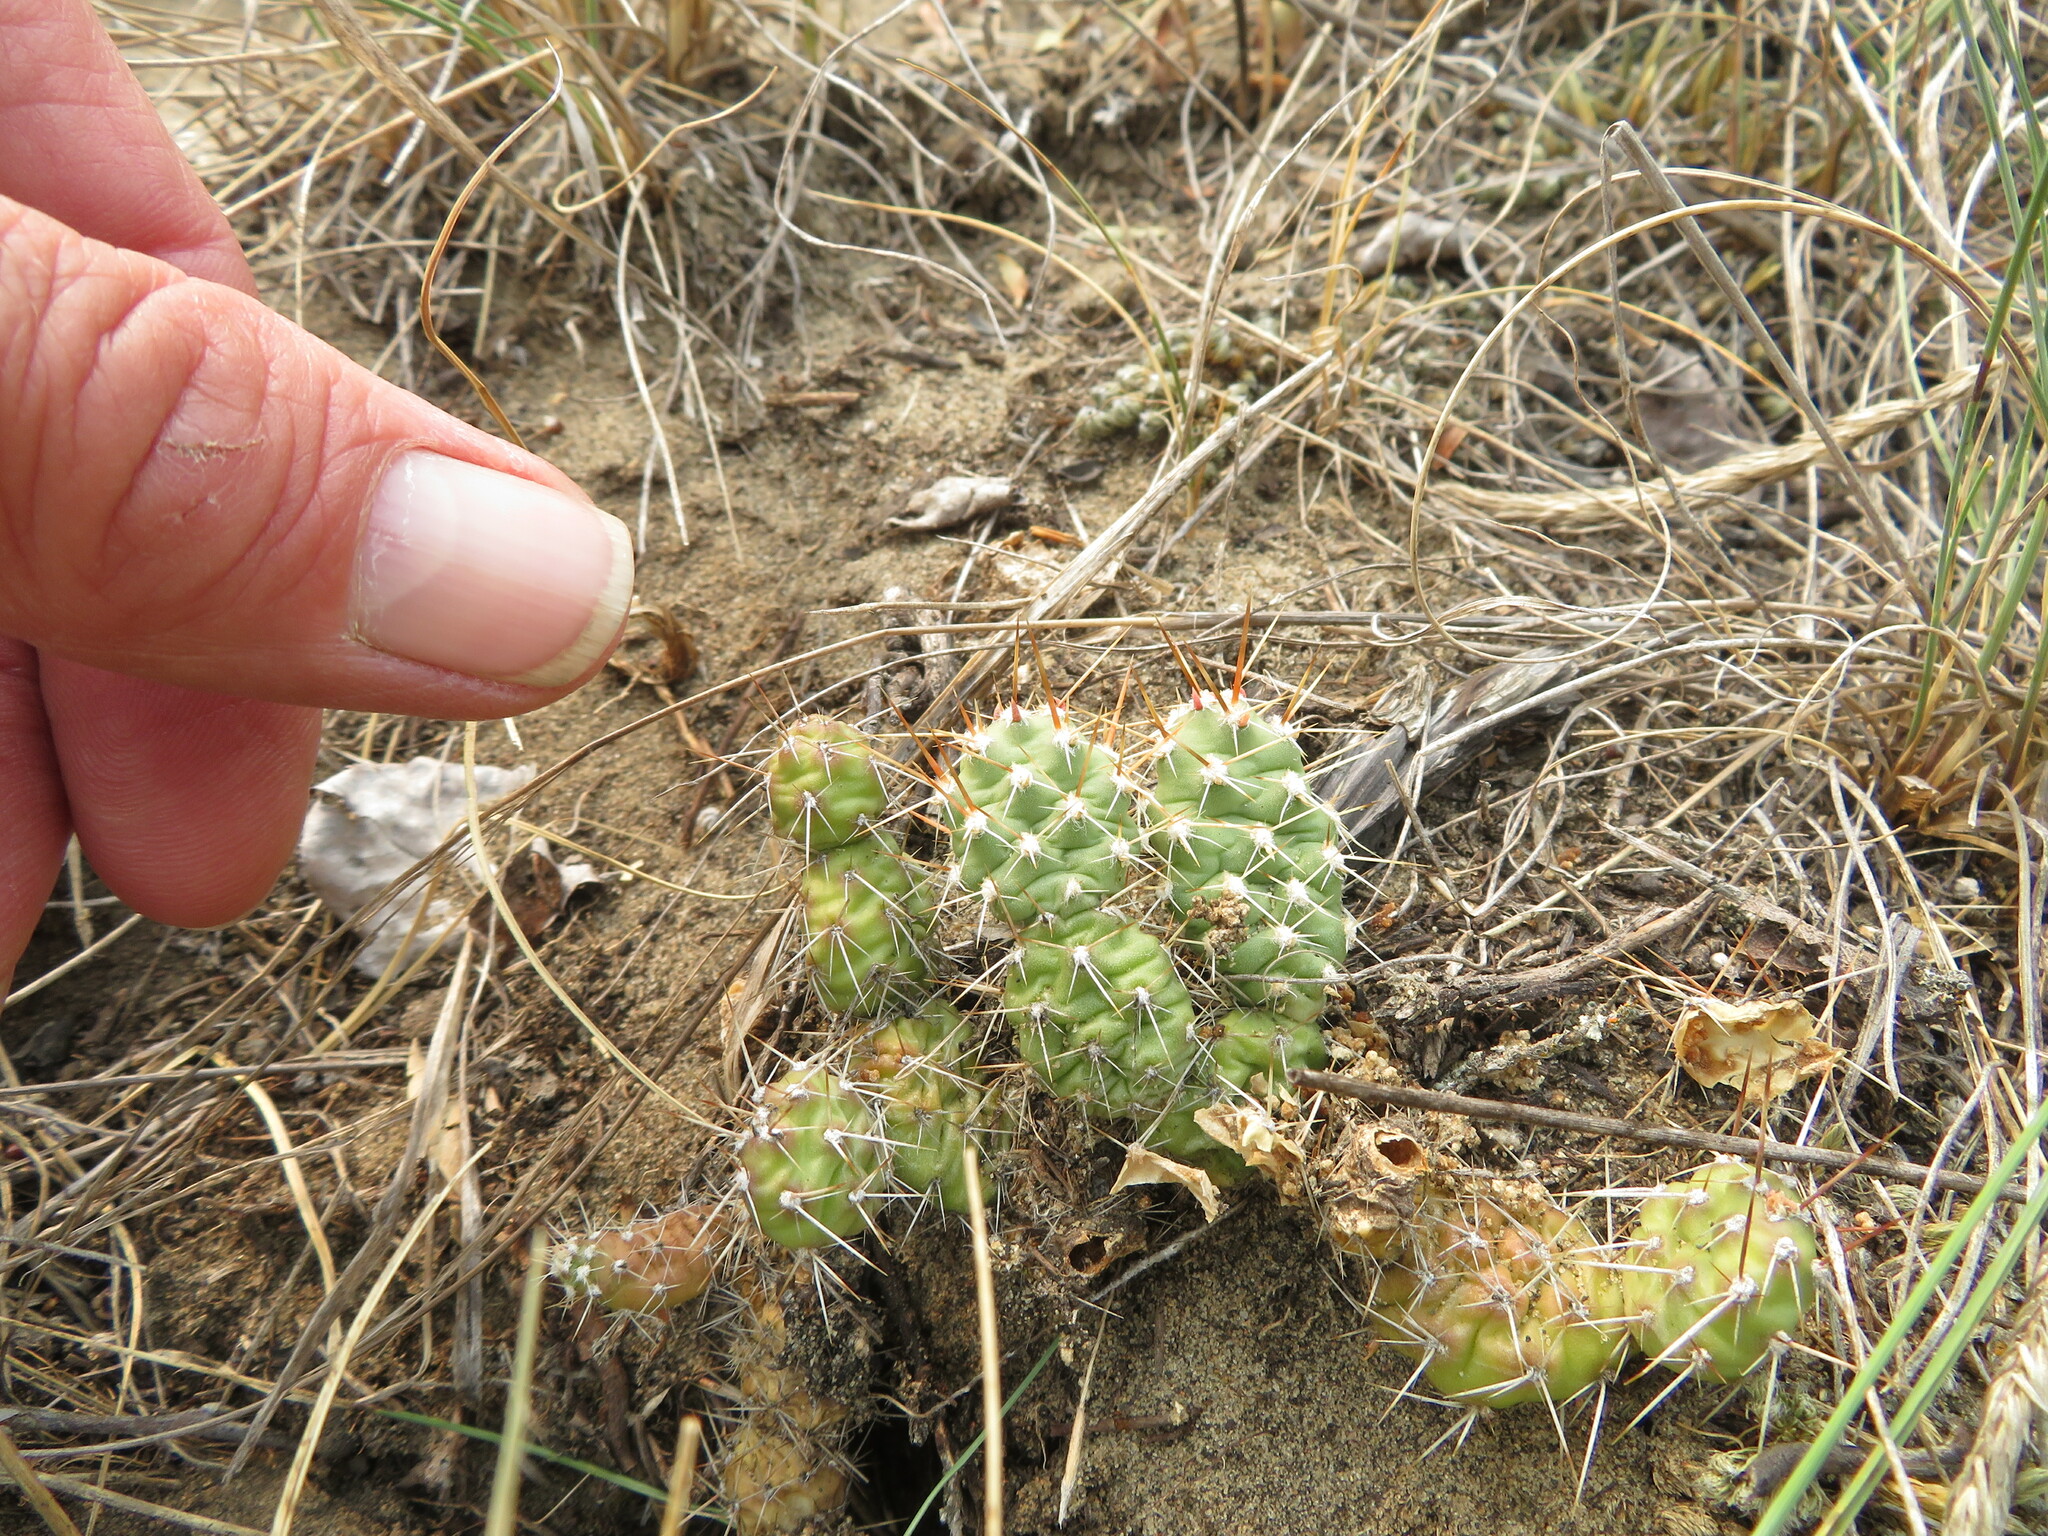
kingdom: Plantae
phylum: Tracheophyta
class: Magnoliopsida
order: Caryophyllales
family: Cactaceae
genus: Opuntia
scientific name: Opuntia fragilis
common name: Brittle cactus
